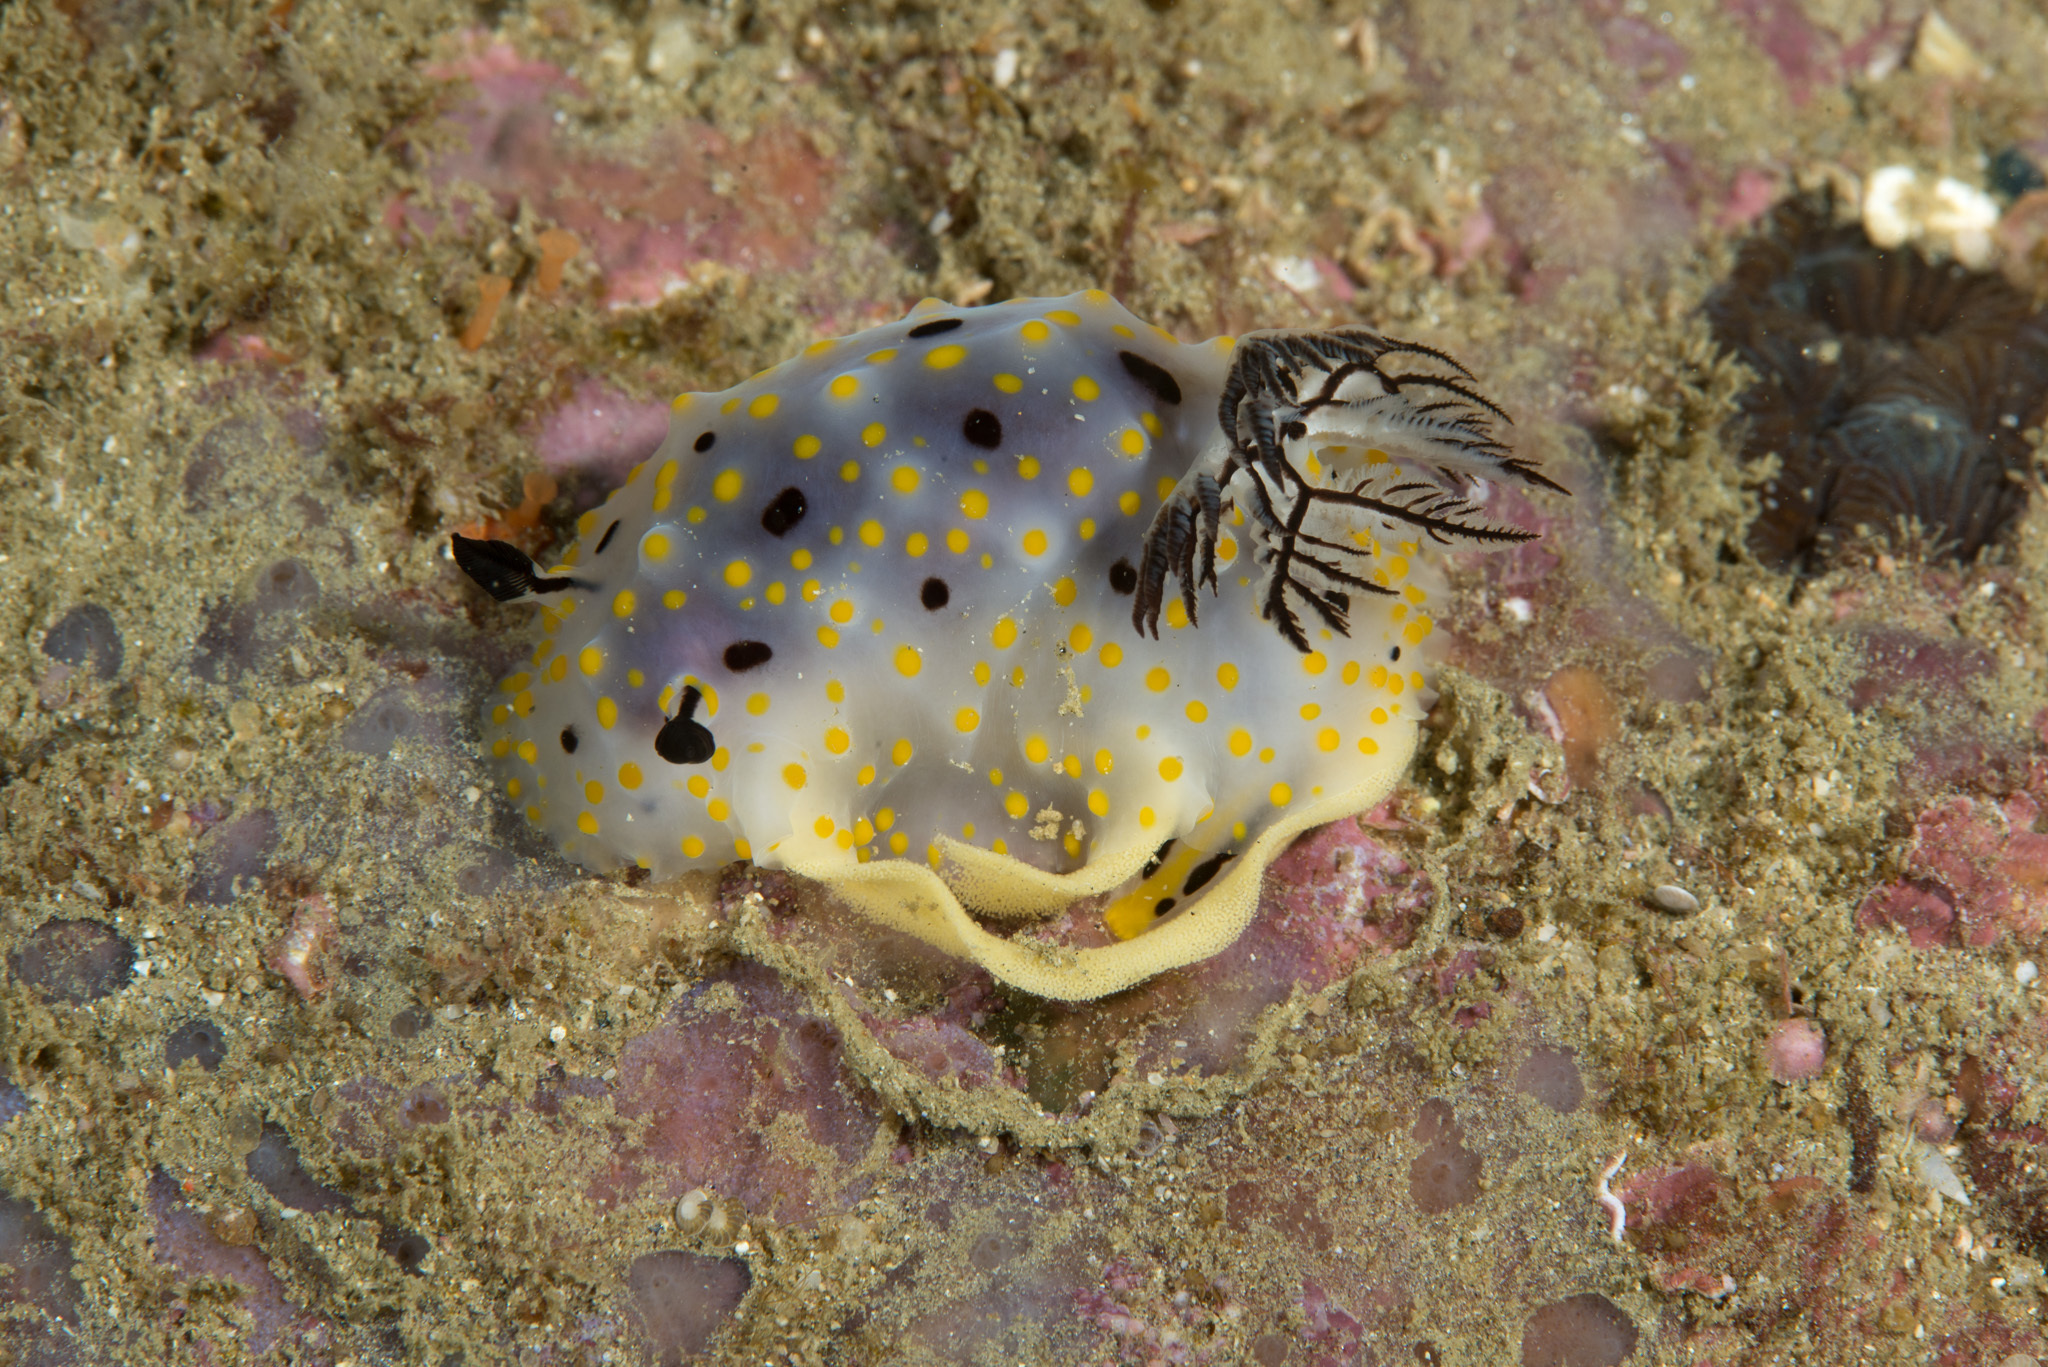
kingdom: Animalia
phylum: Mollusca
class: Gastropoda
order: Nudibranchia
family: Discodorididae
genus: Halgerda
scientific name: Halgerda punctata
